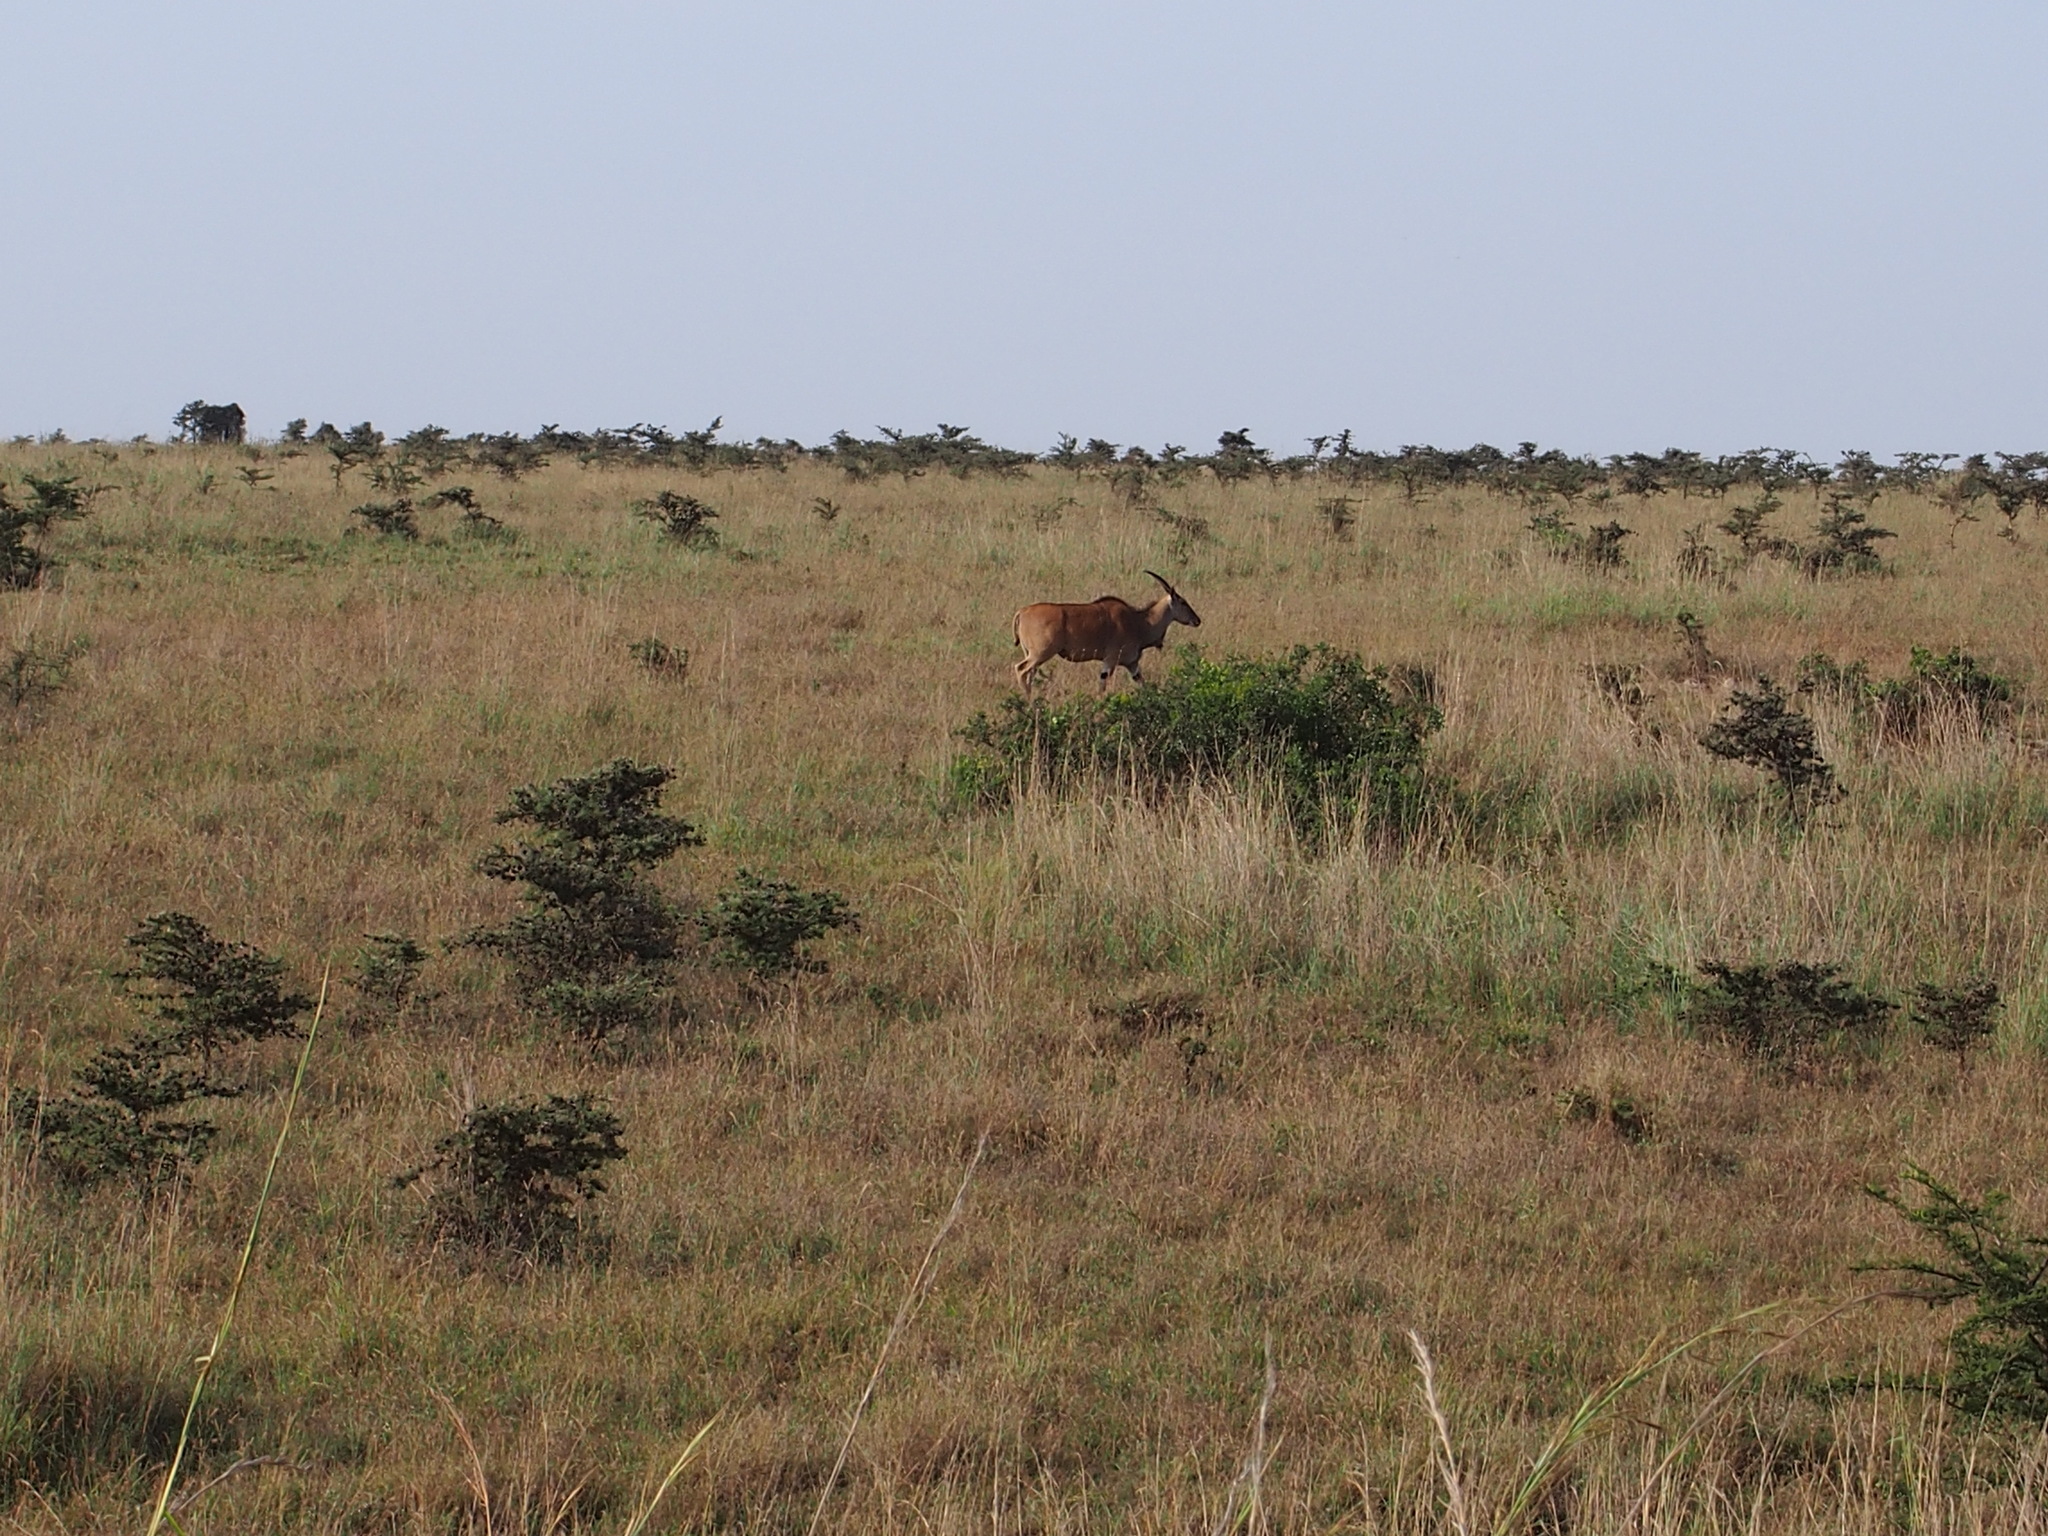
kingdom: Animalia
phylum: Chordata
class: Mammalia
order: Artiodactyla
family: Bovidae
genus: Taurotragus
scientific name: Taurotragus oryx
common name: Common eland
